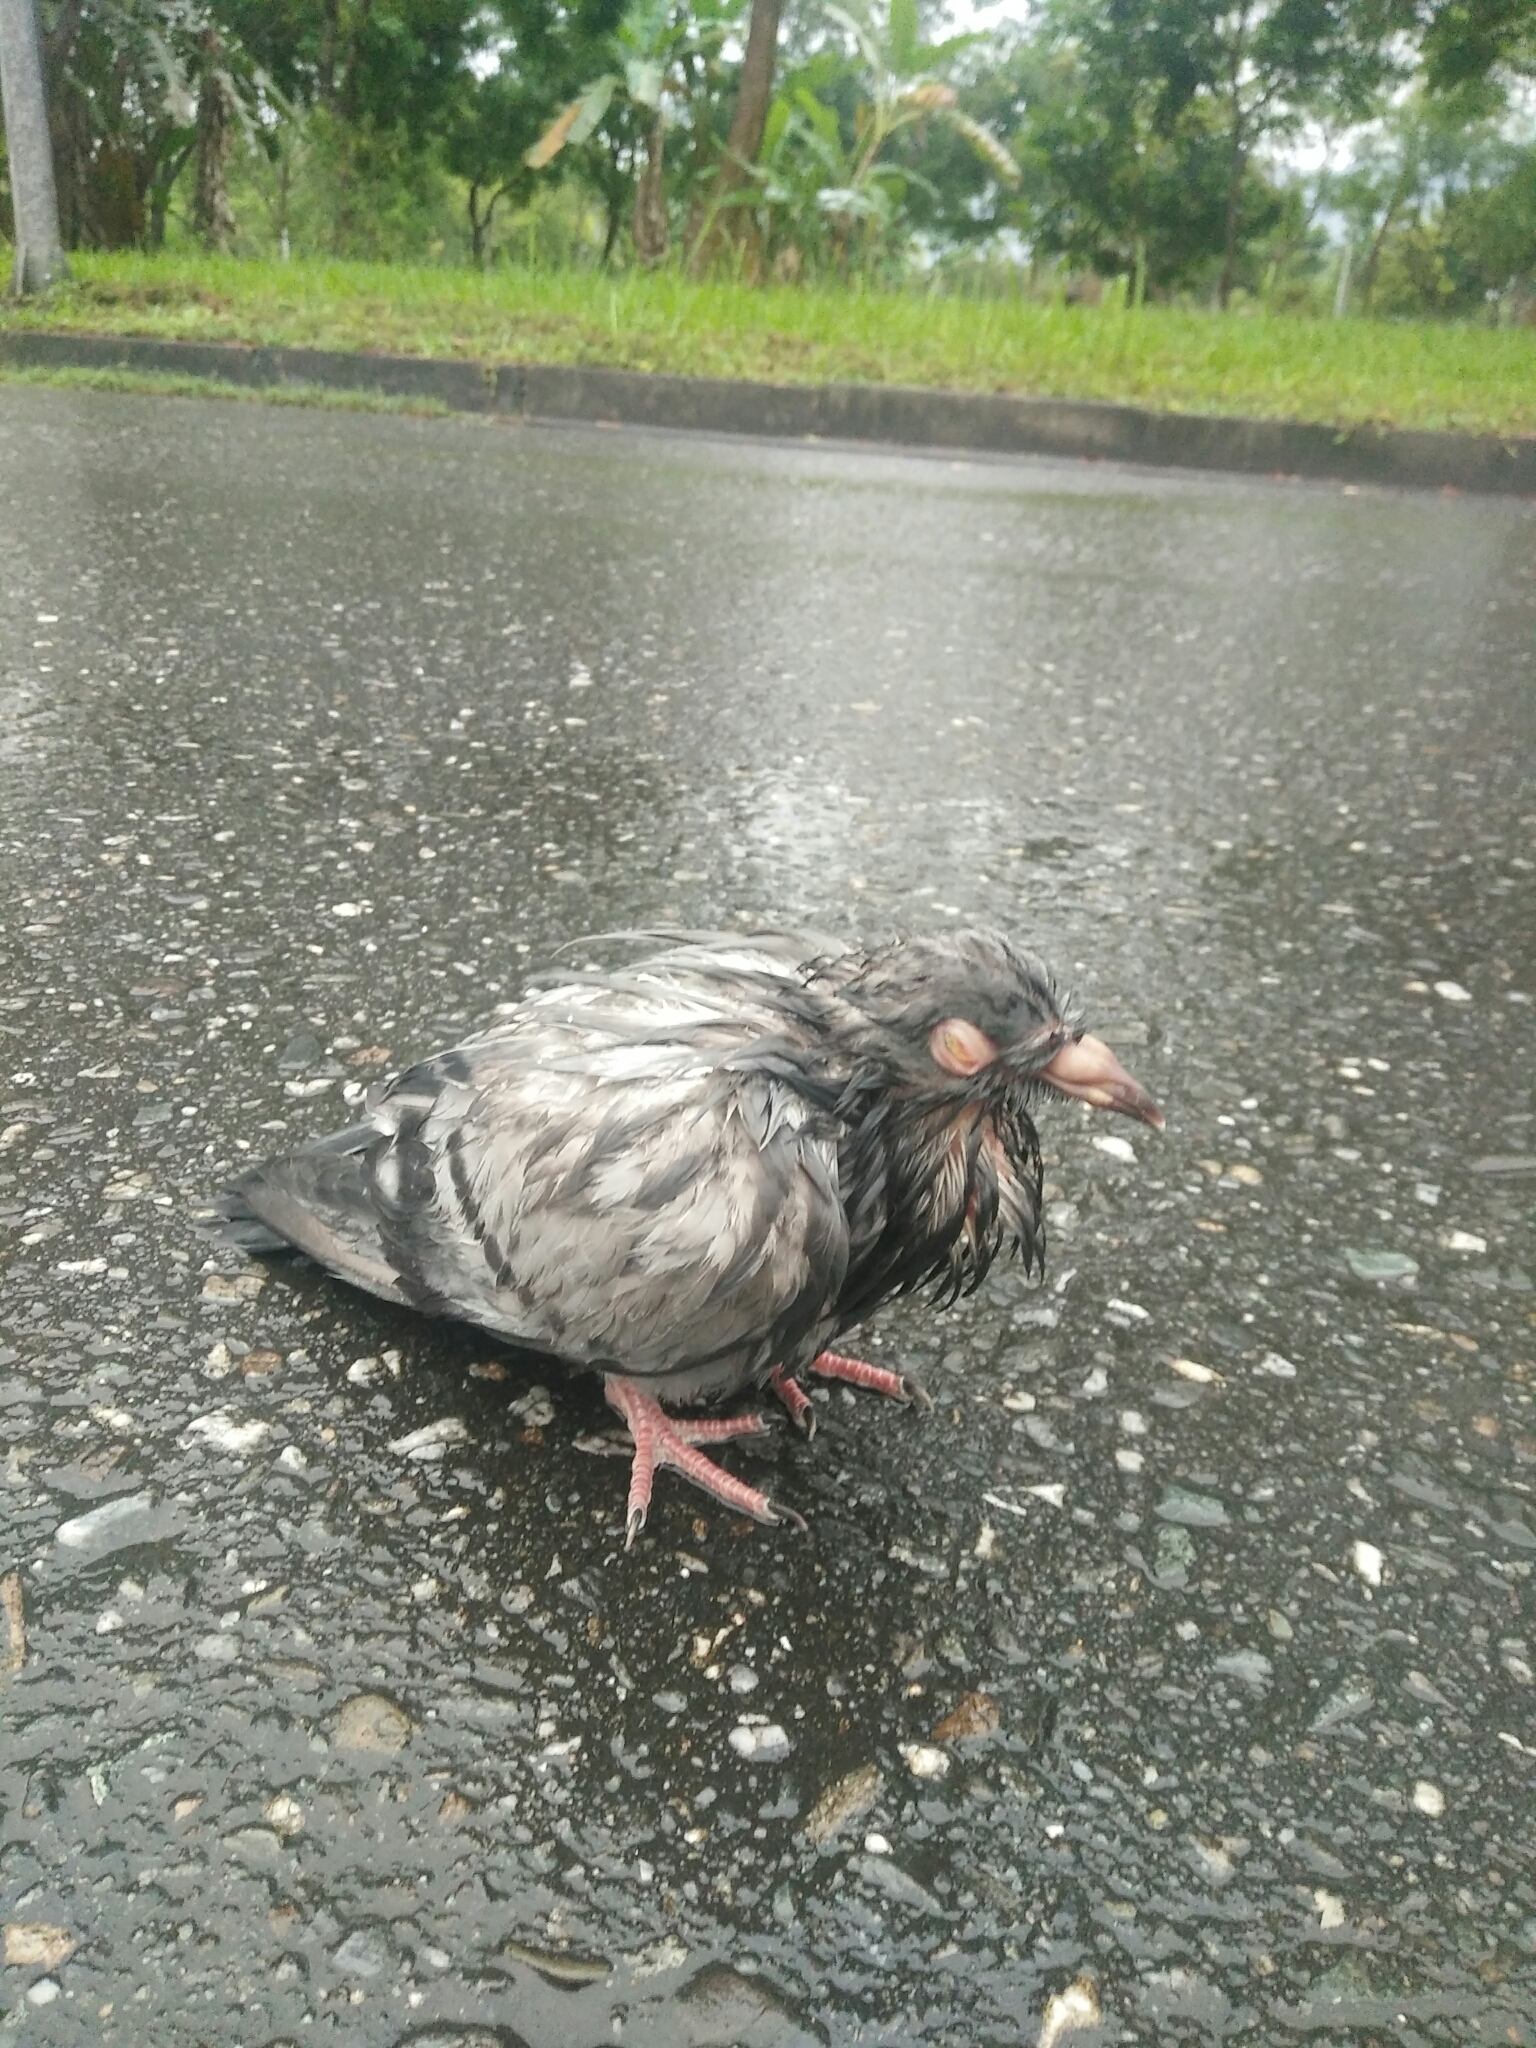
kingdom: Animalia
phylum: Chordata
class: Aves
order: Columbiformes
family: Columbidae
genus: Columba
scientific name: Columba livia
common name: Rock pigeon
